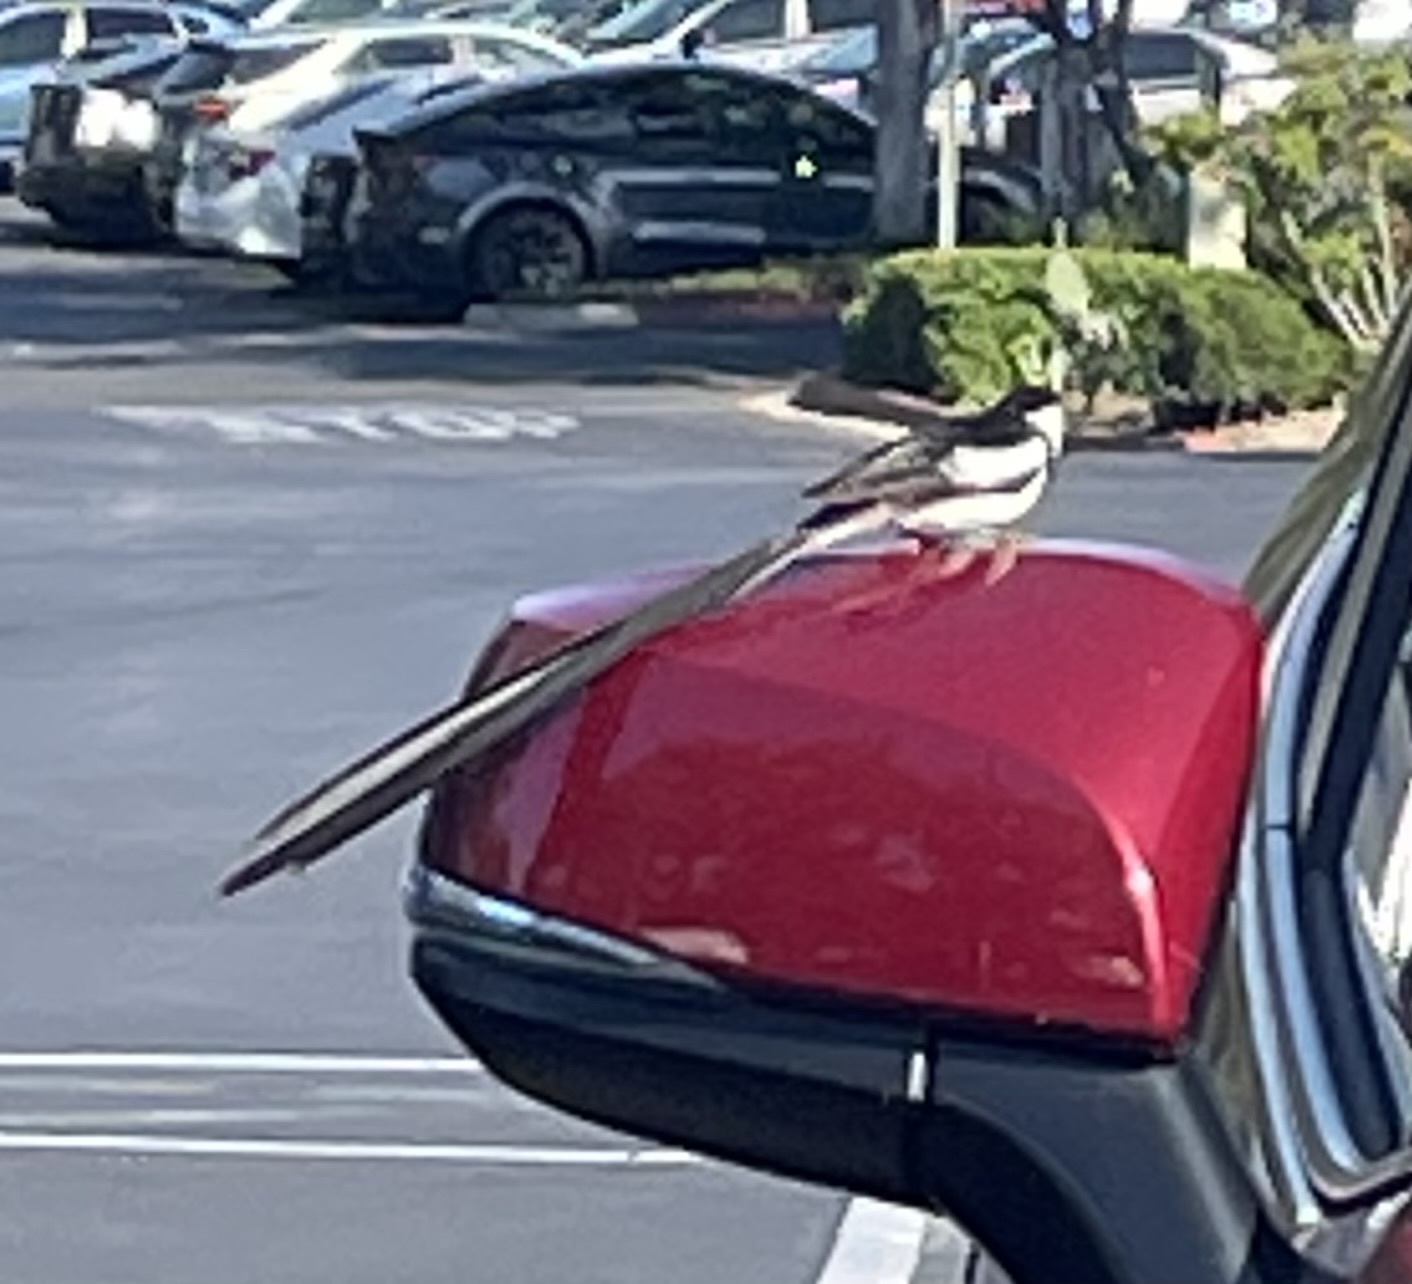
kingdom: Animalia
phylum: Chordata
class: Aves
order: Passeriformes
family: Viduidae
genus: Vidua
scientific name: Vidua macroura
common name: Pin-tailed whydah
